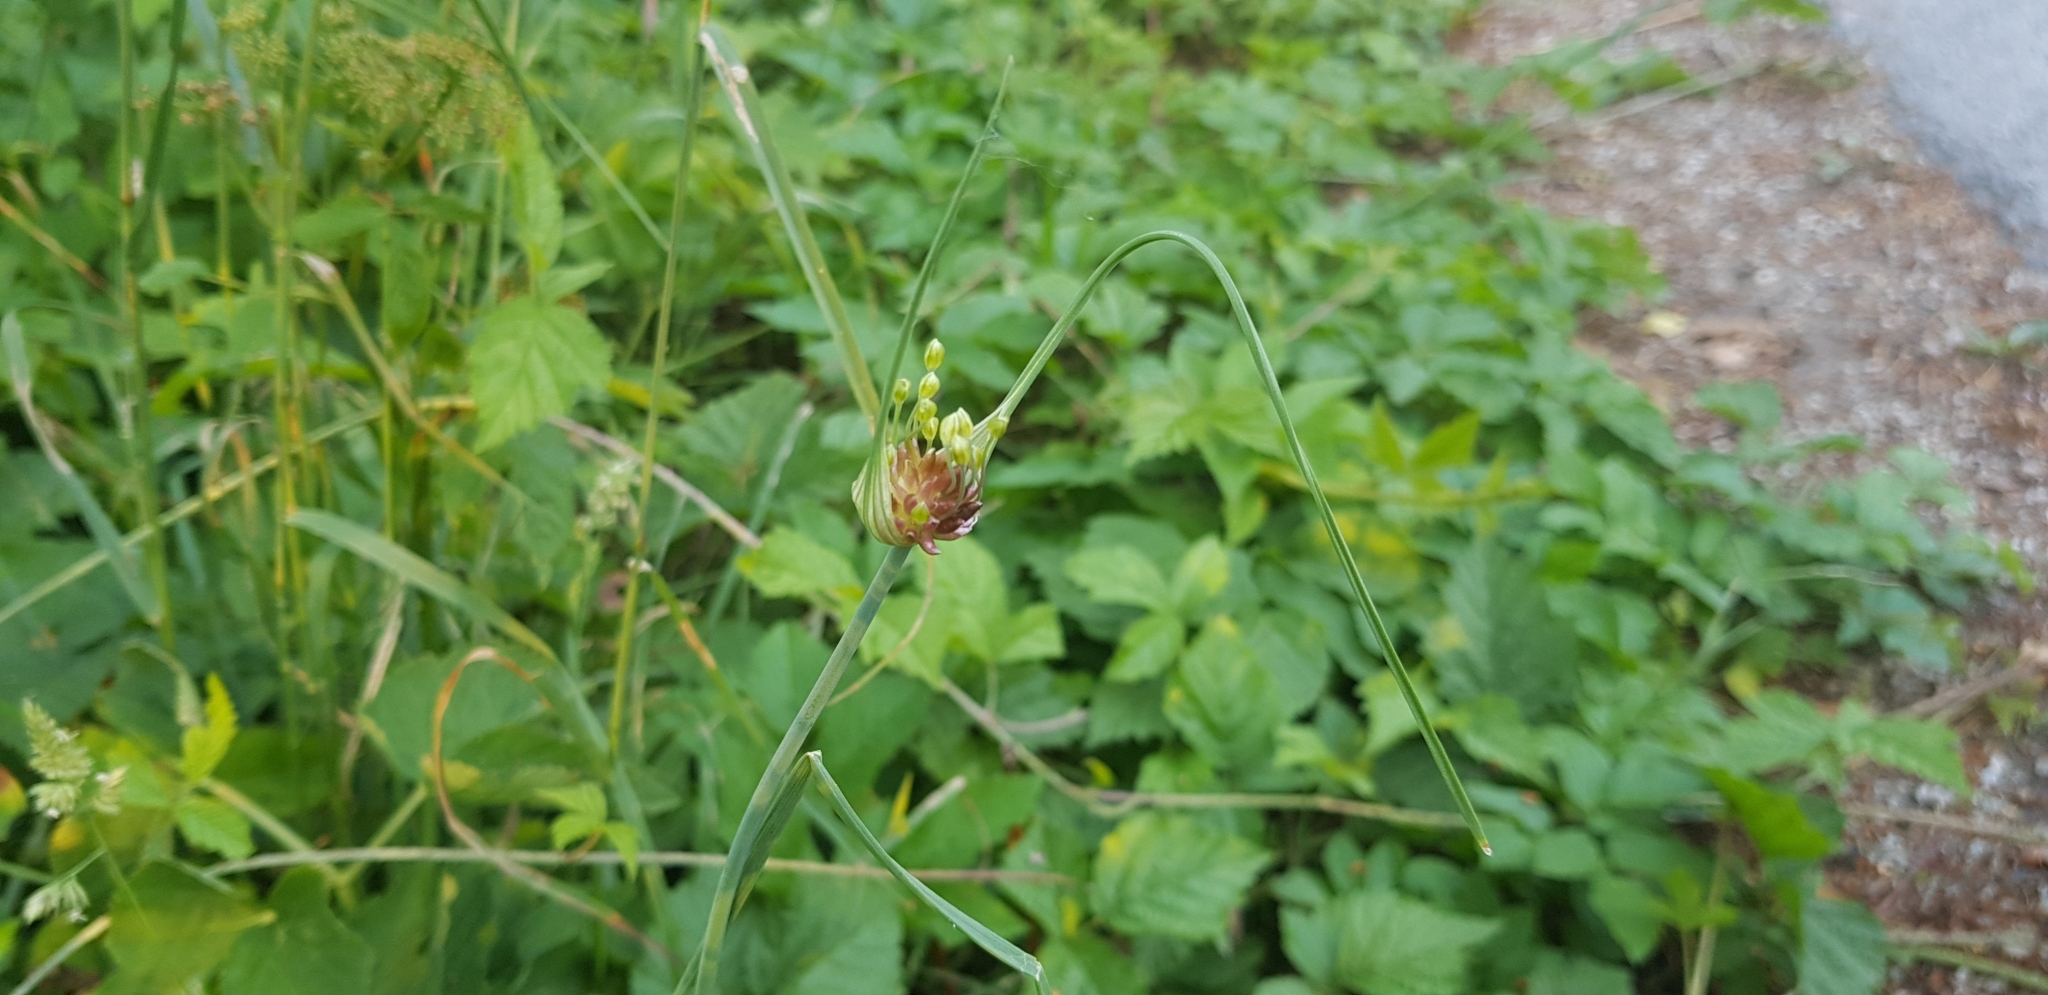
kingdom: Plantae
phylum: Tracheophyta
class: Liliopsida
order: Asparagales
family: Amaryllidaceae
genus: Allium
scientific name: Allium oleraceum
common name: Field garlic
